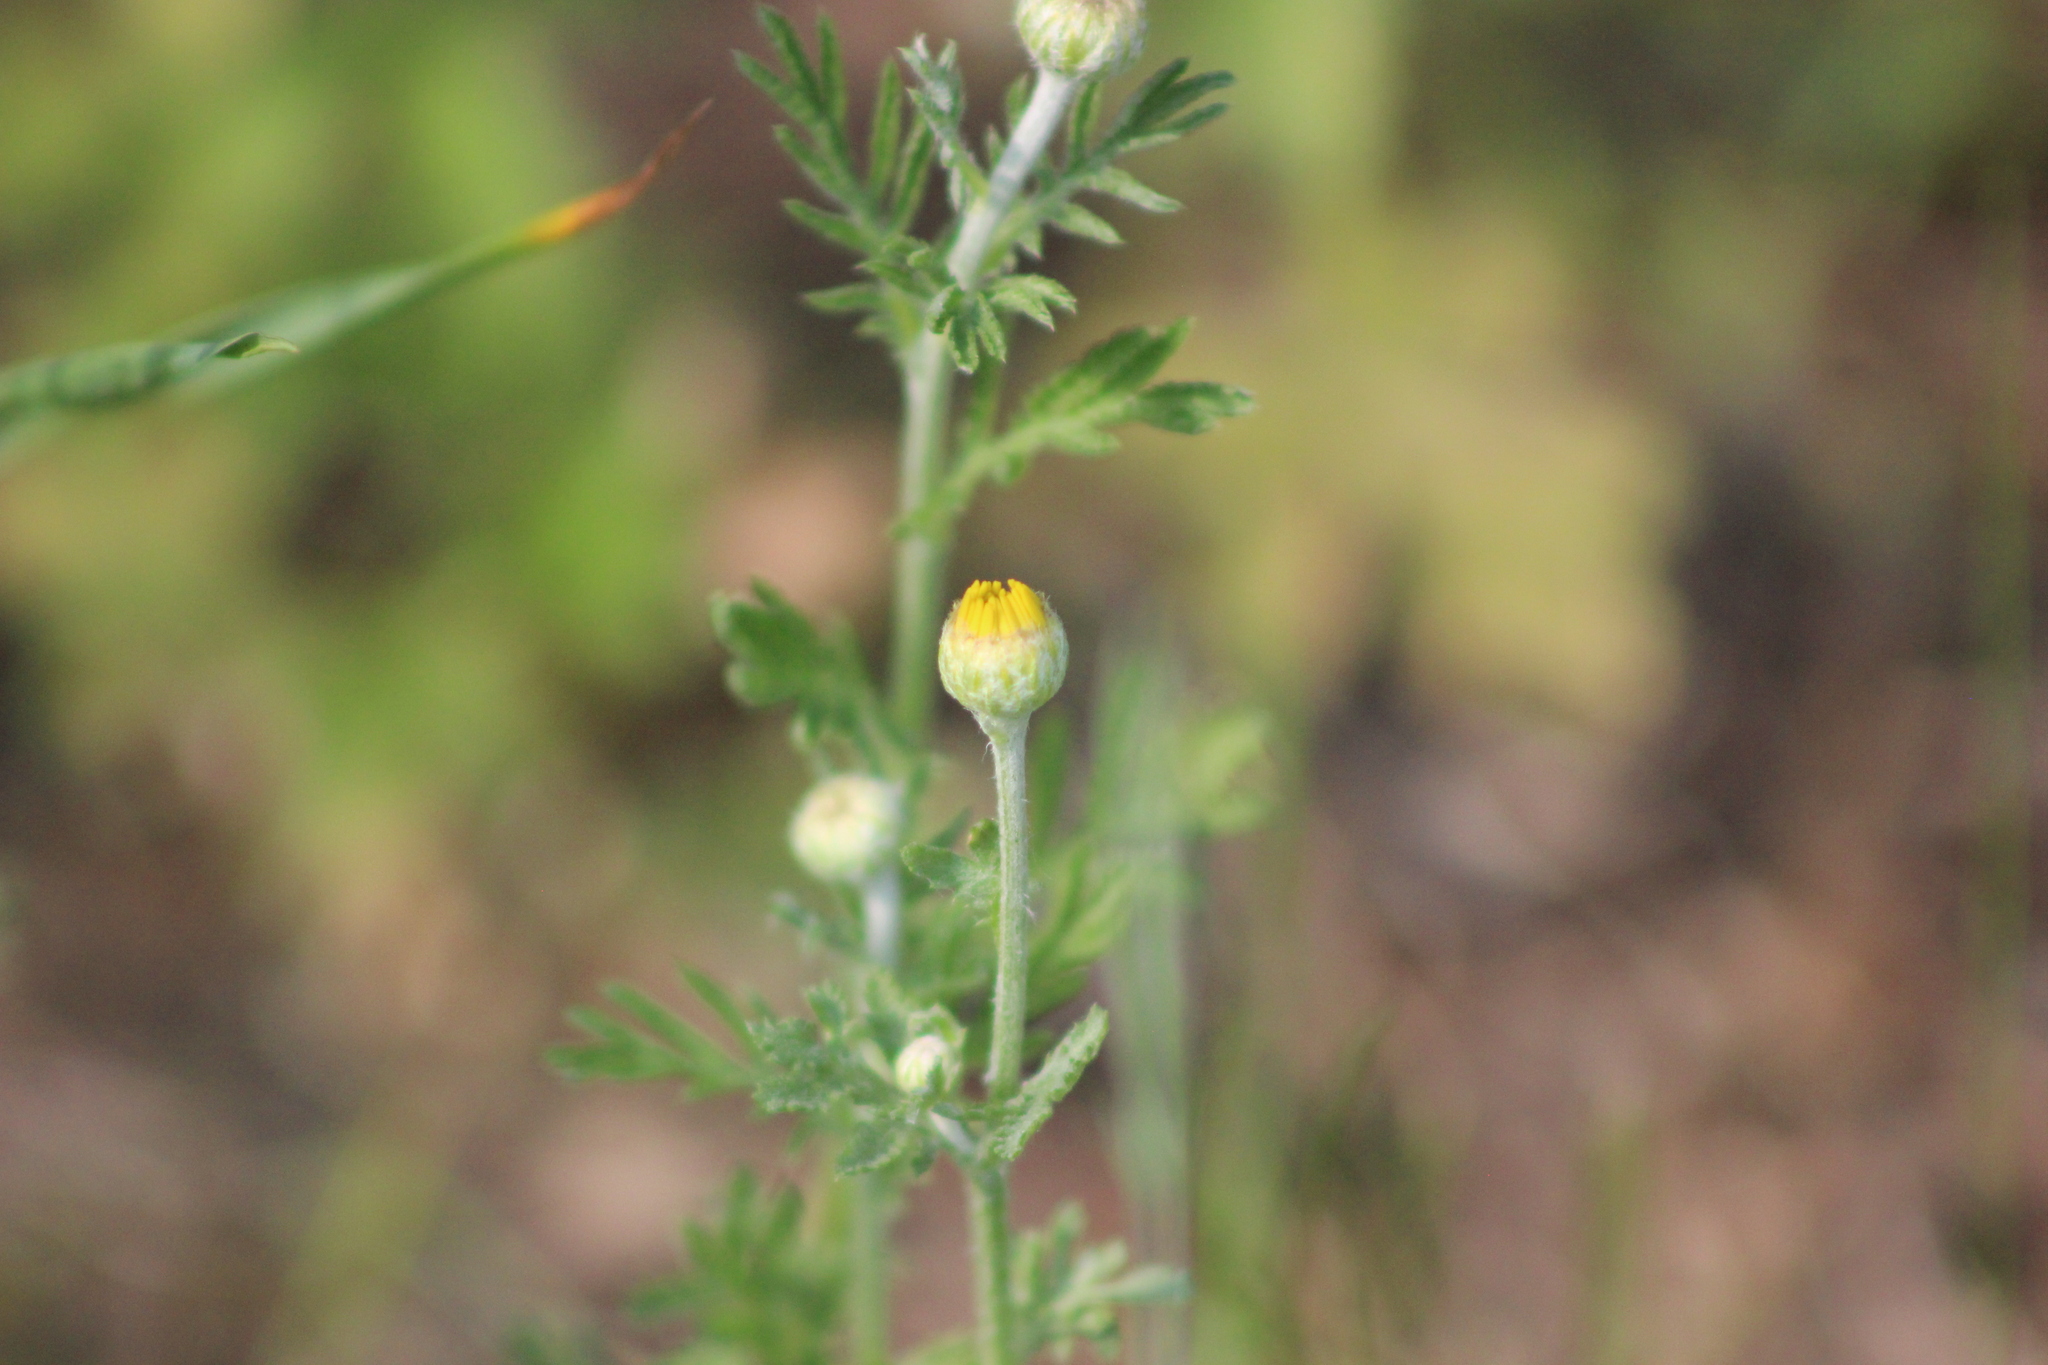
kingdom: Plantae
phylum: Tracheophyta
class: Magnoliopsida
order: Asterales
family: Asteraceae
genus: Cota
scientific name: Cota tinctoria
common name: Golden chamomile
